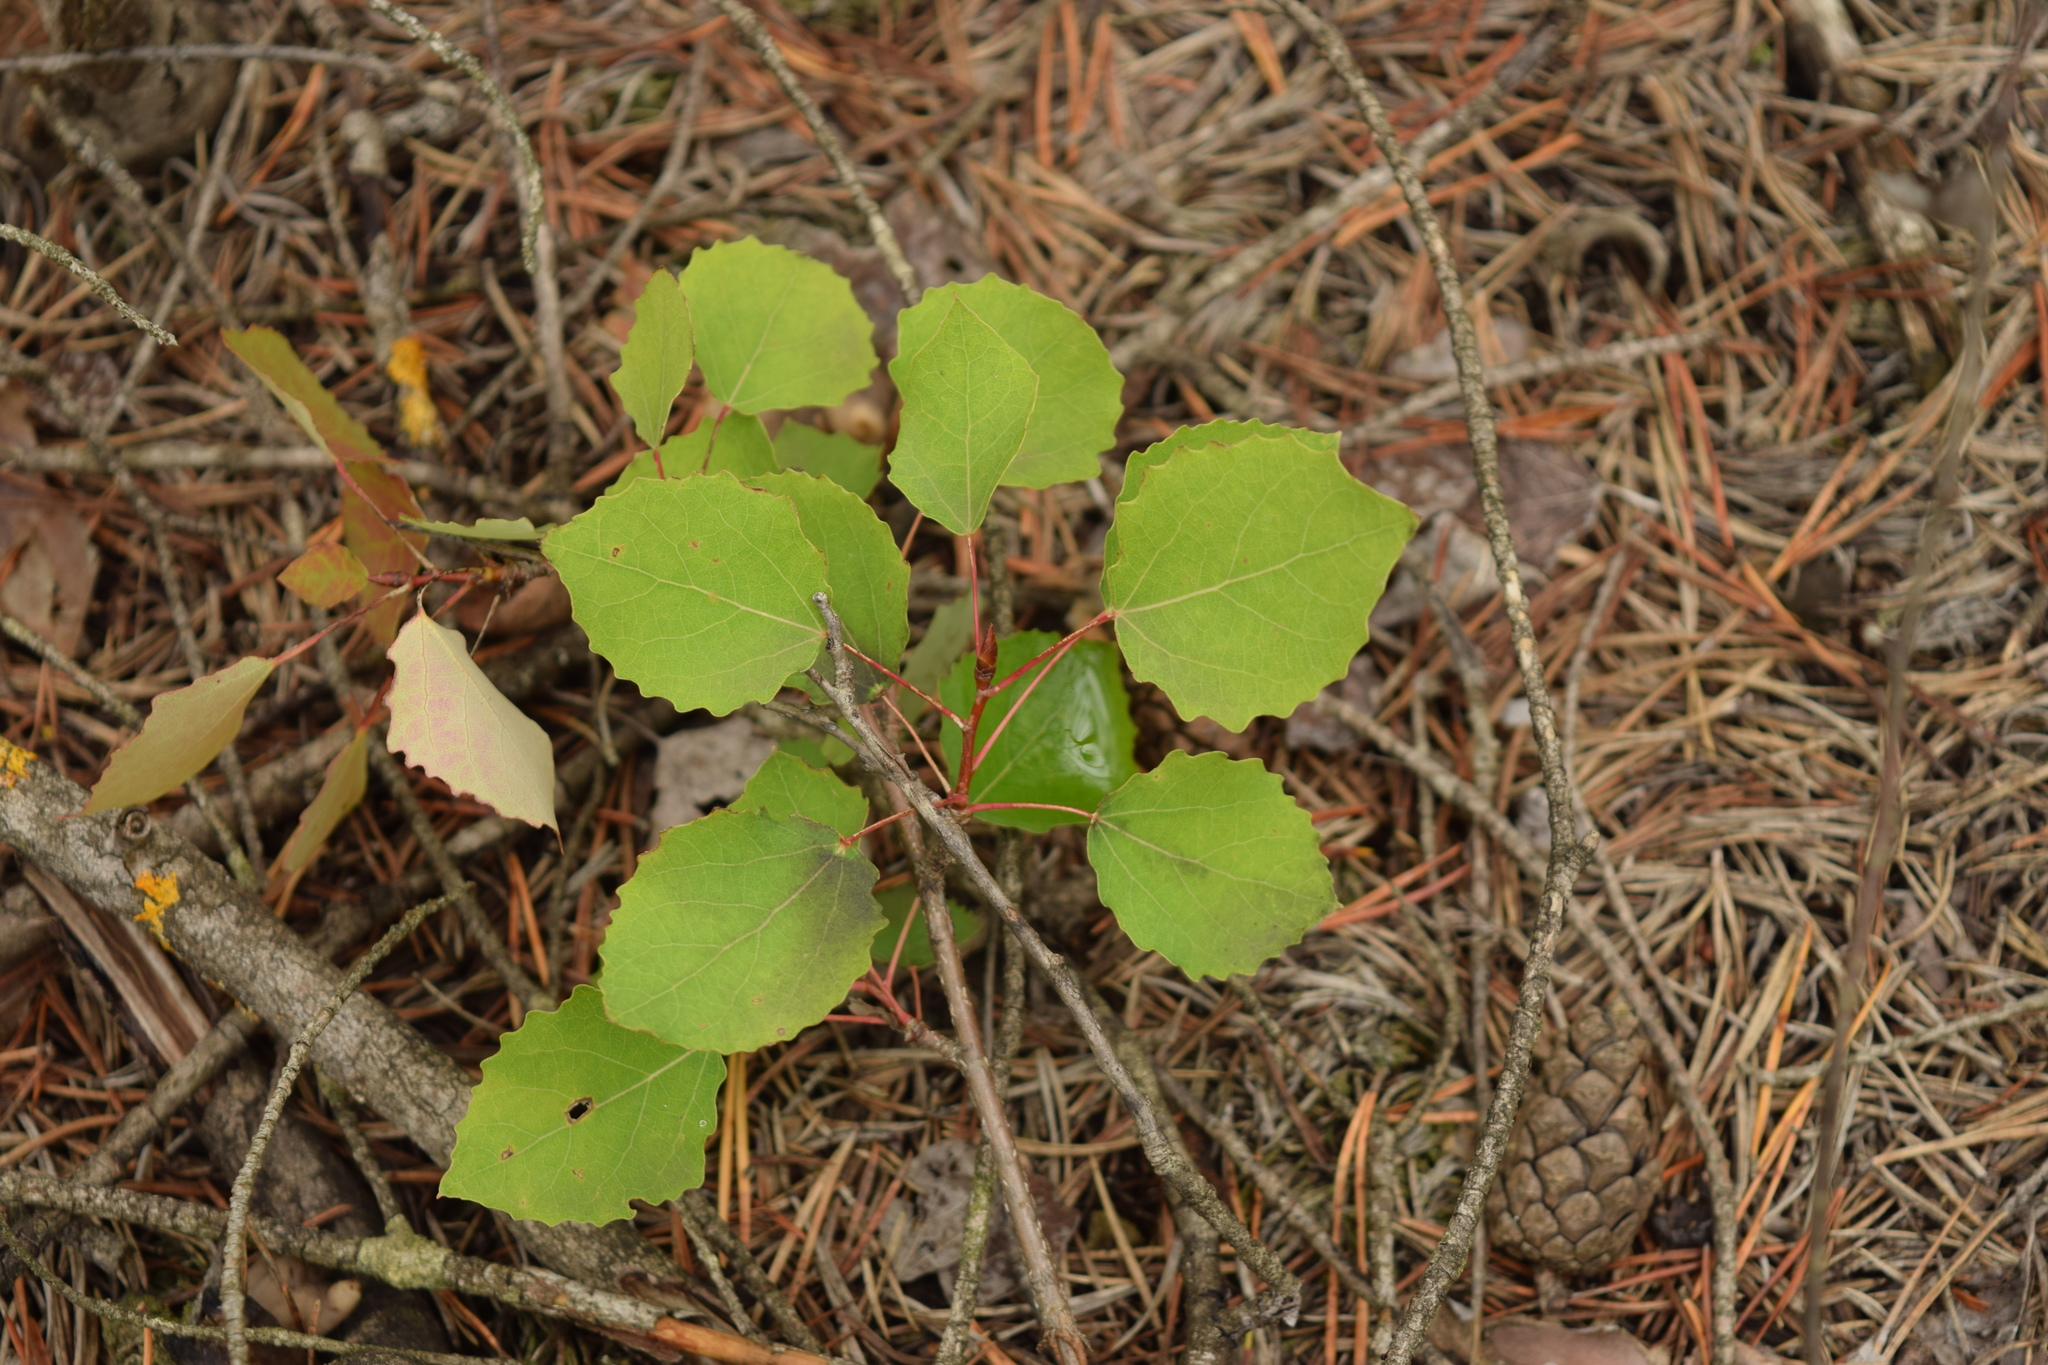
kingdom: Plantae
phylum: Tracheophyta
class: Magnoliopsida
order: Malpighiales
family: Salicaceae
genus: Populus
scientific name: Populus tremula
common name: European aspen
